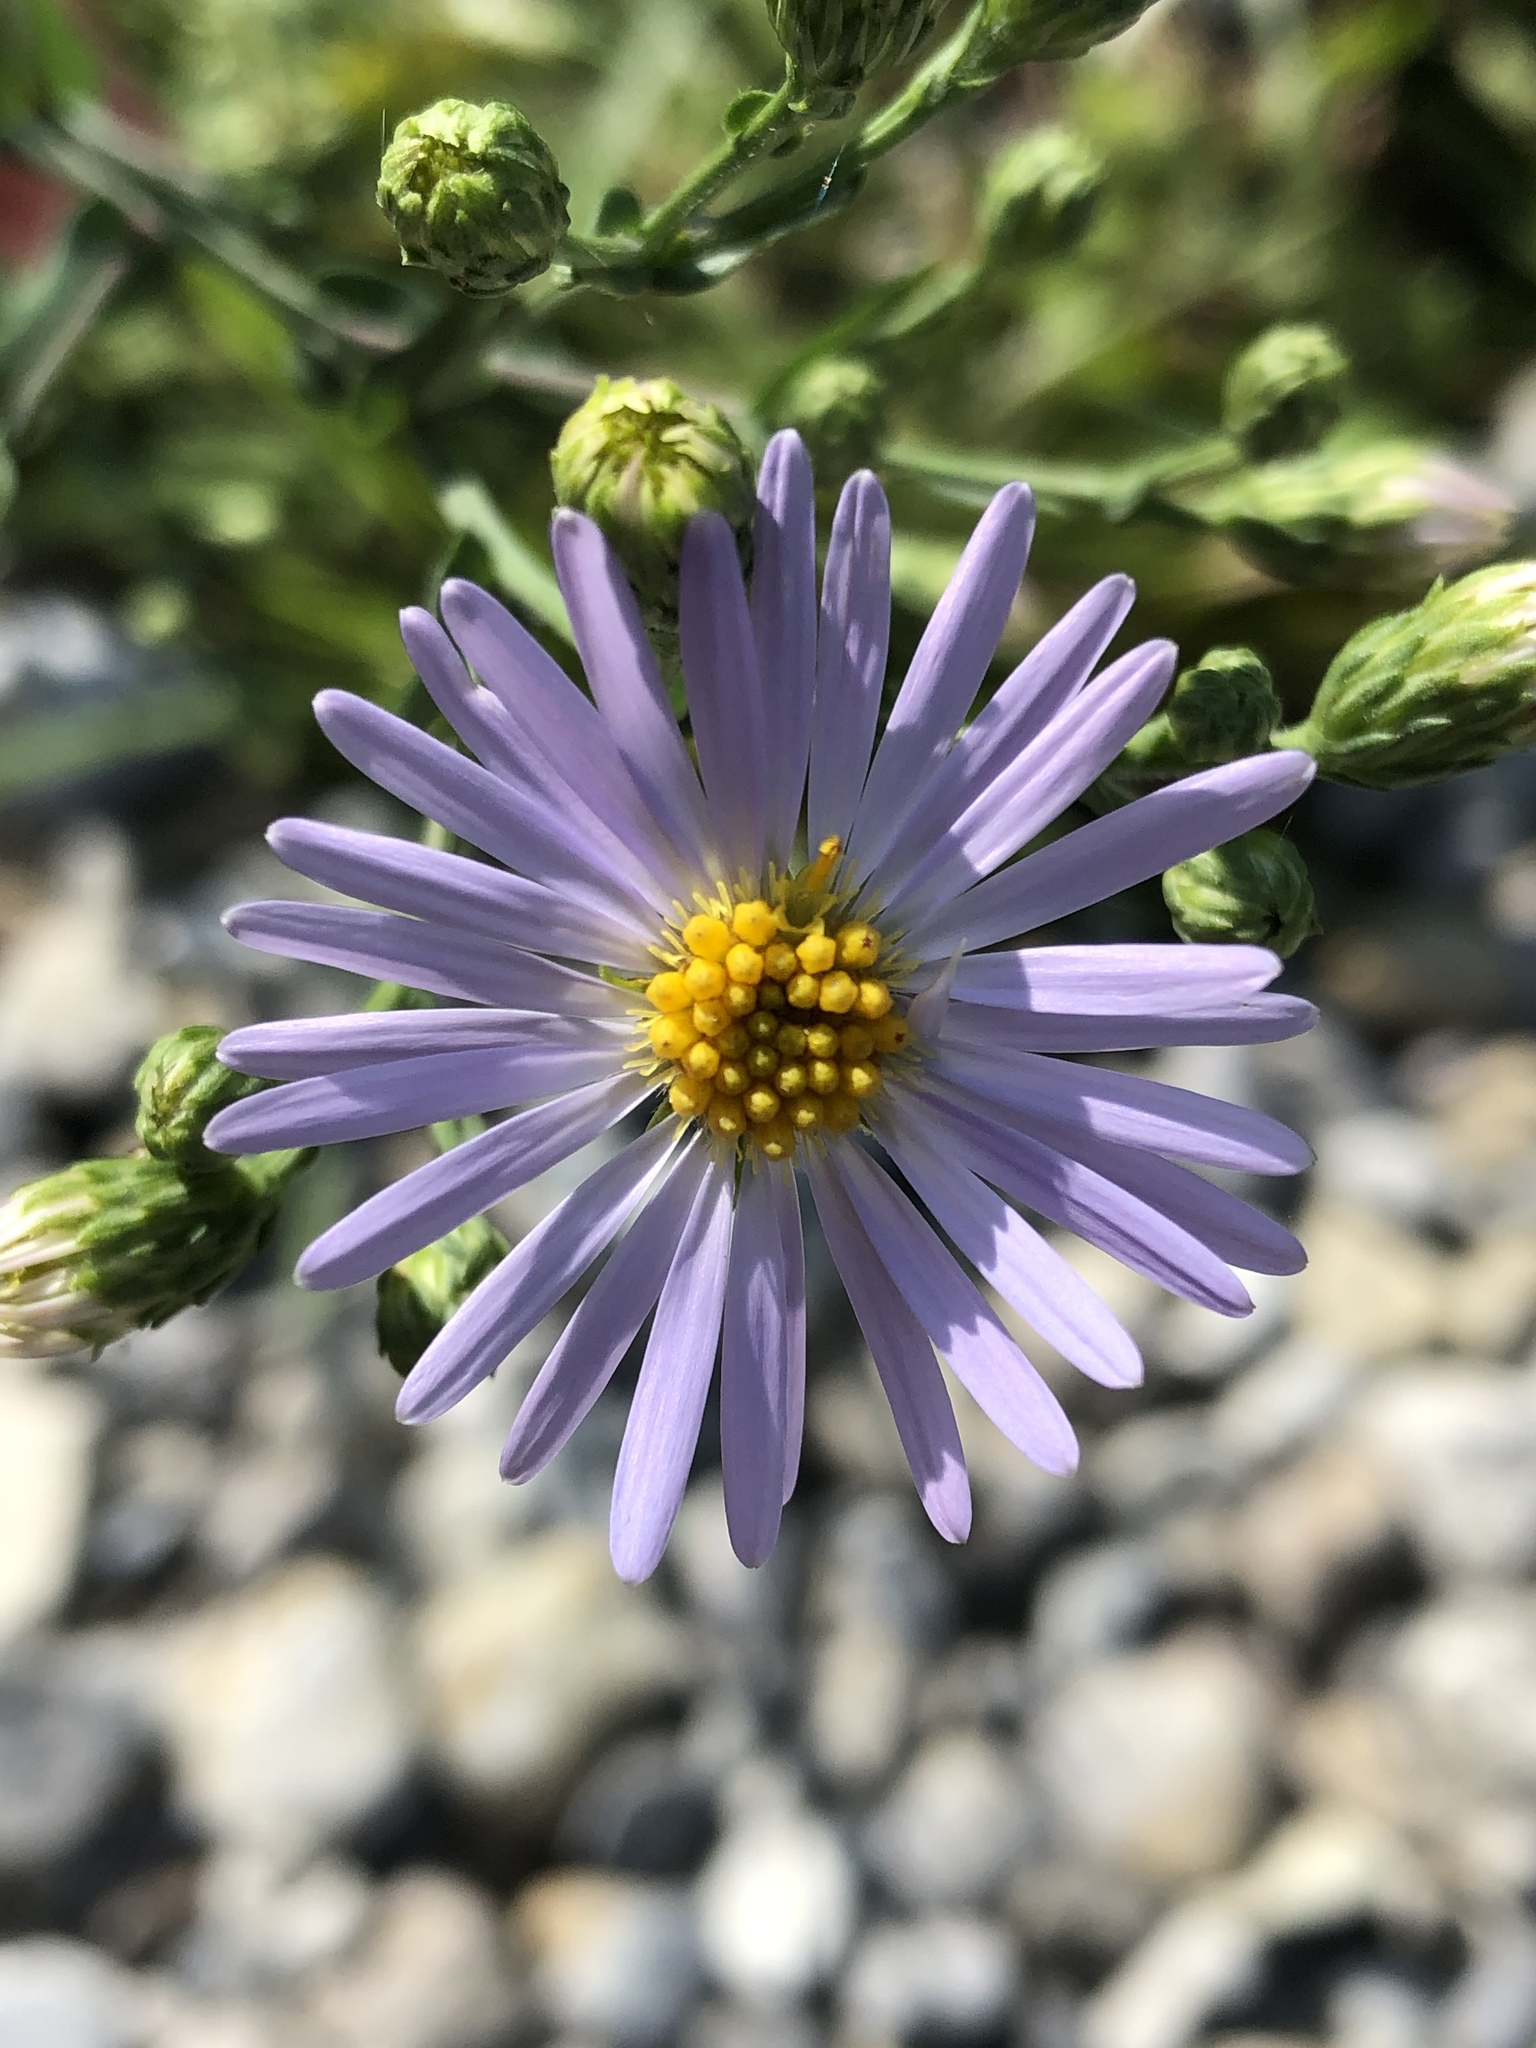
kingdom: Plantae
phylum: Tracheophyta
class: Magnoliopsida
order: Asterales
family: Asteraceae
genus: Symphyotrichum
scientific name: Symphyotrichum laeve
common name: Glaucous aster
